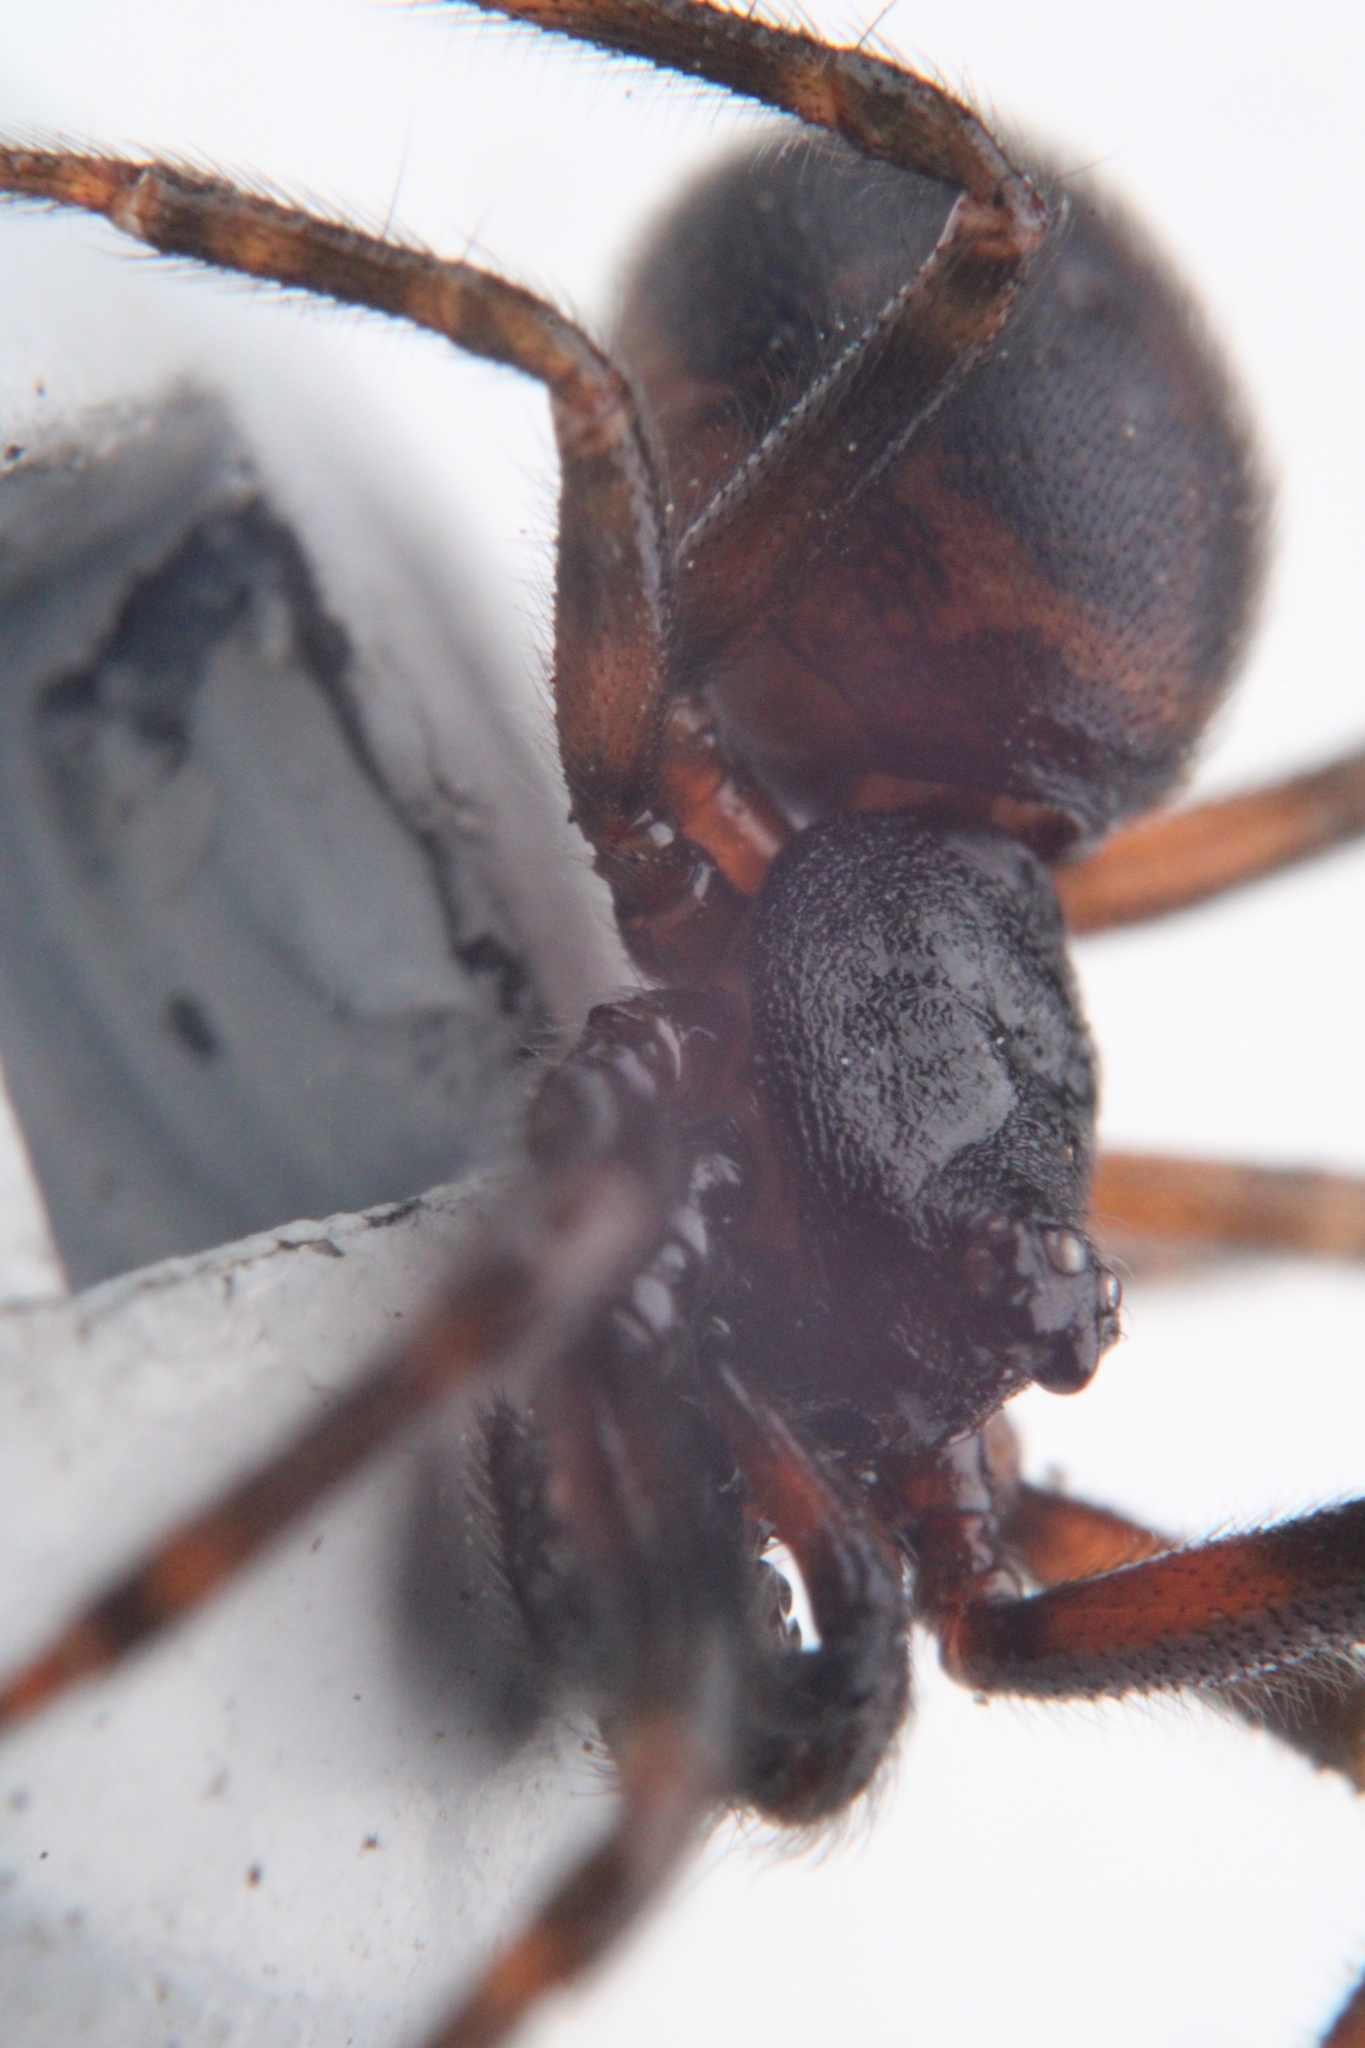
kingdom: Animalia
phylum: Arthropoda
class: Arachnida
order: Araneae
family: Theridiidae
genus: Steatoda
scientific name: Steatoda borealis
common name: Boreal combfoot
